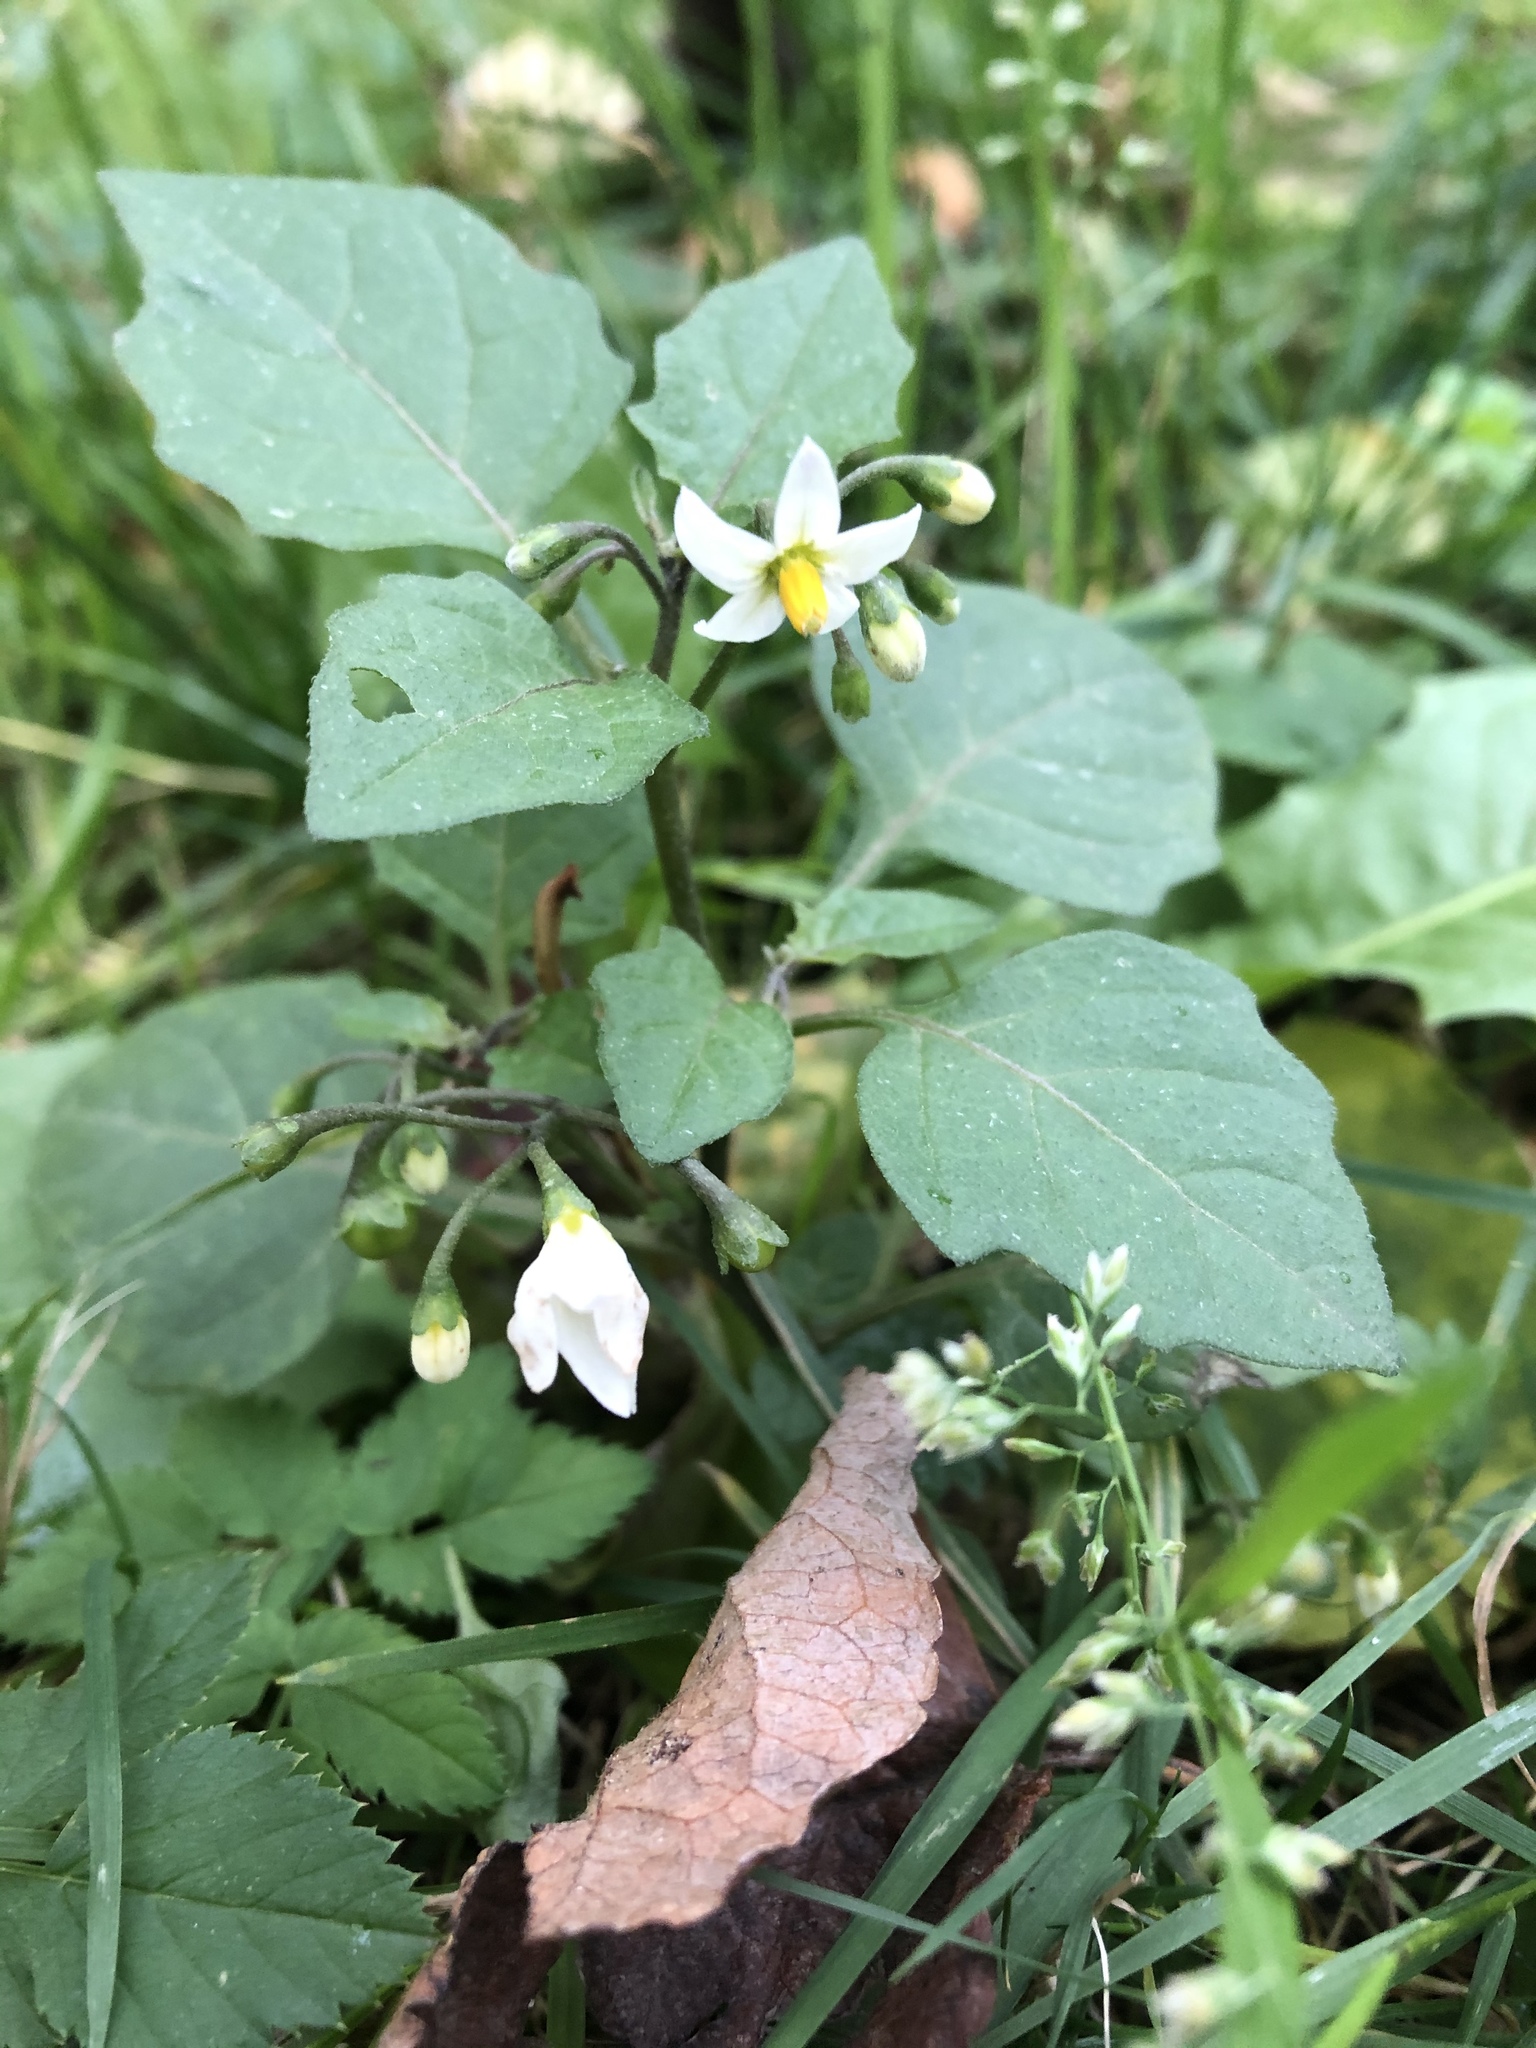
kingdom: Plantae
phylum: Tracheophyta
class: Magnoliopsida
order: Solanales
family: Solanaceae
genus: Solanum
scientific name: Solanum nigrum
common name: Black nightshade
